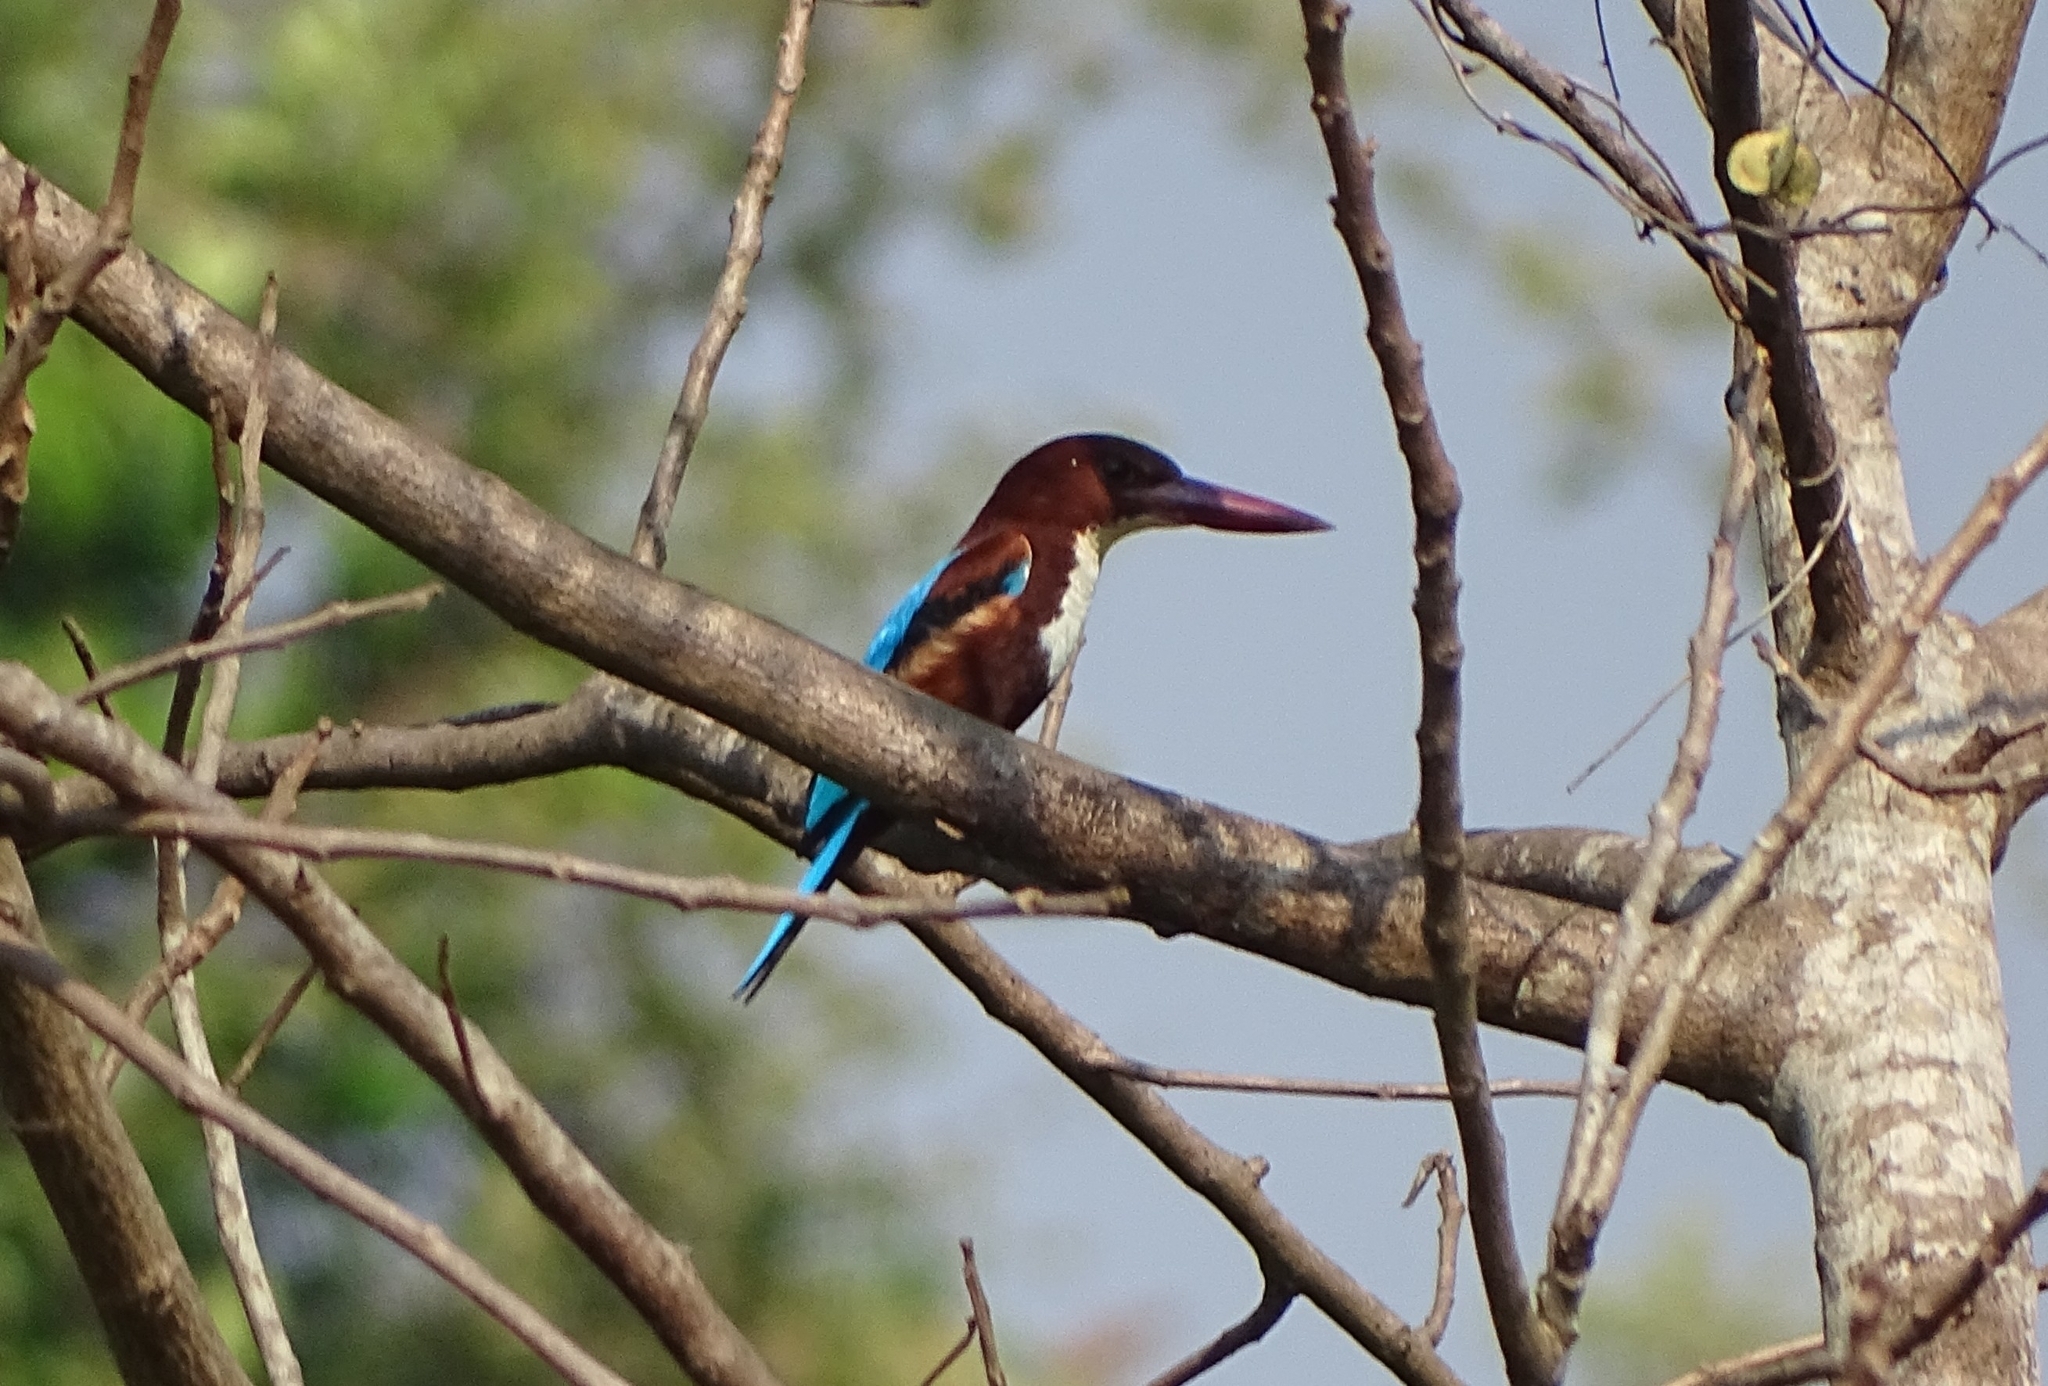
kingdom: Animalia
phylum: Chordata
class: Aves
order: Coraciiformes
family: Alcedinidae
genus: Halcyon
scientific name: Halcyon smyrnensis
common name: White-throated kingfisher
